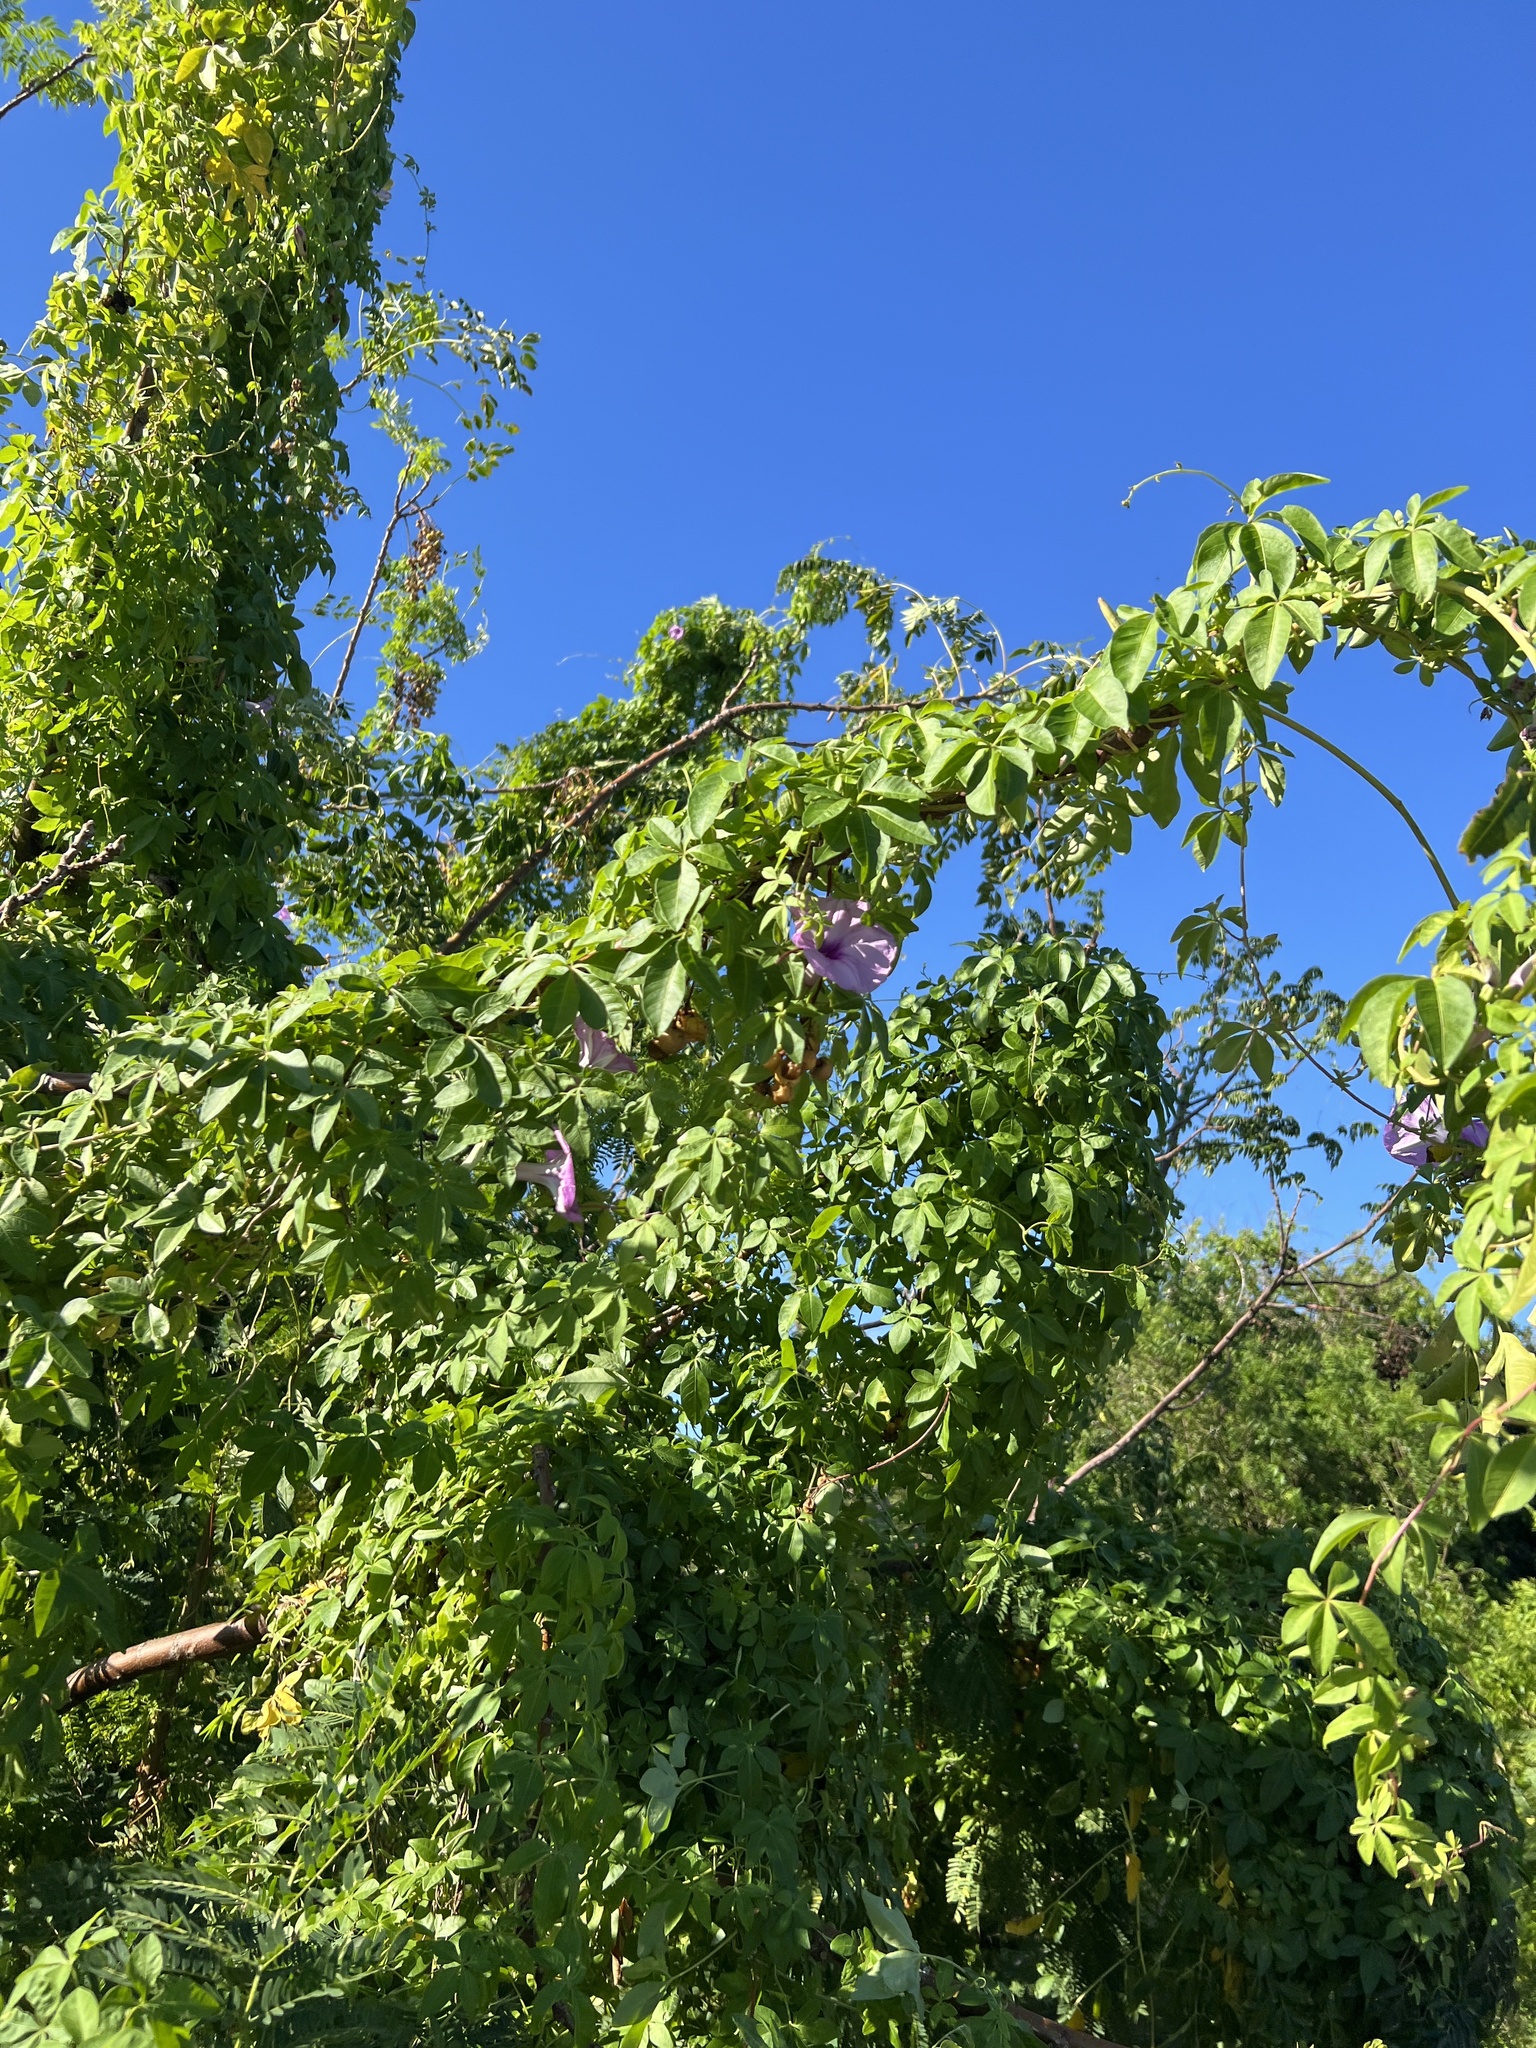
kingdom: Plantae
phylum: Tracheophyta
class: Magnoliopsida
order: Solanales
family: Convolvulaceae
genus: Ipomoea
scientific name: Ipomoea cairica
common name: Mile a minute vine
